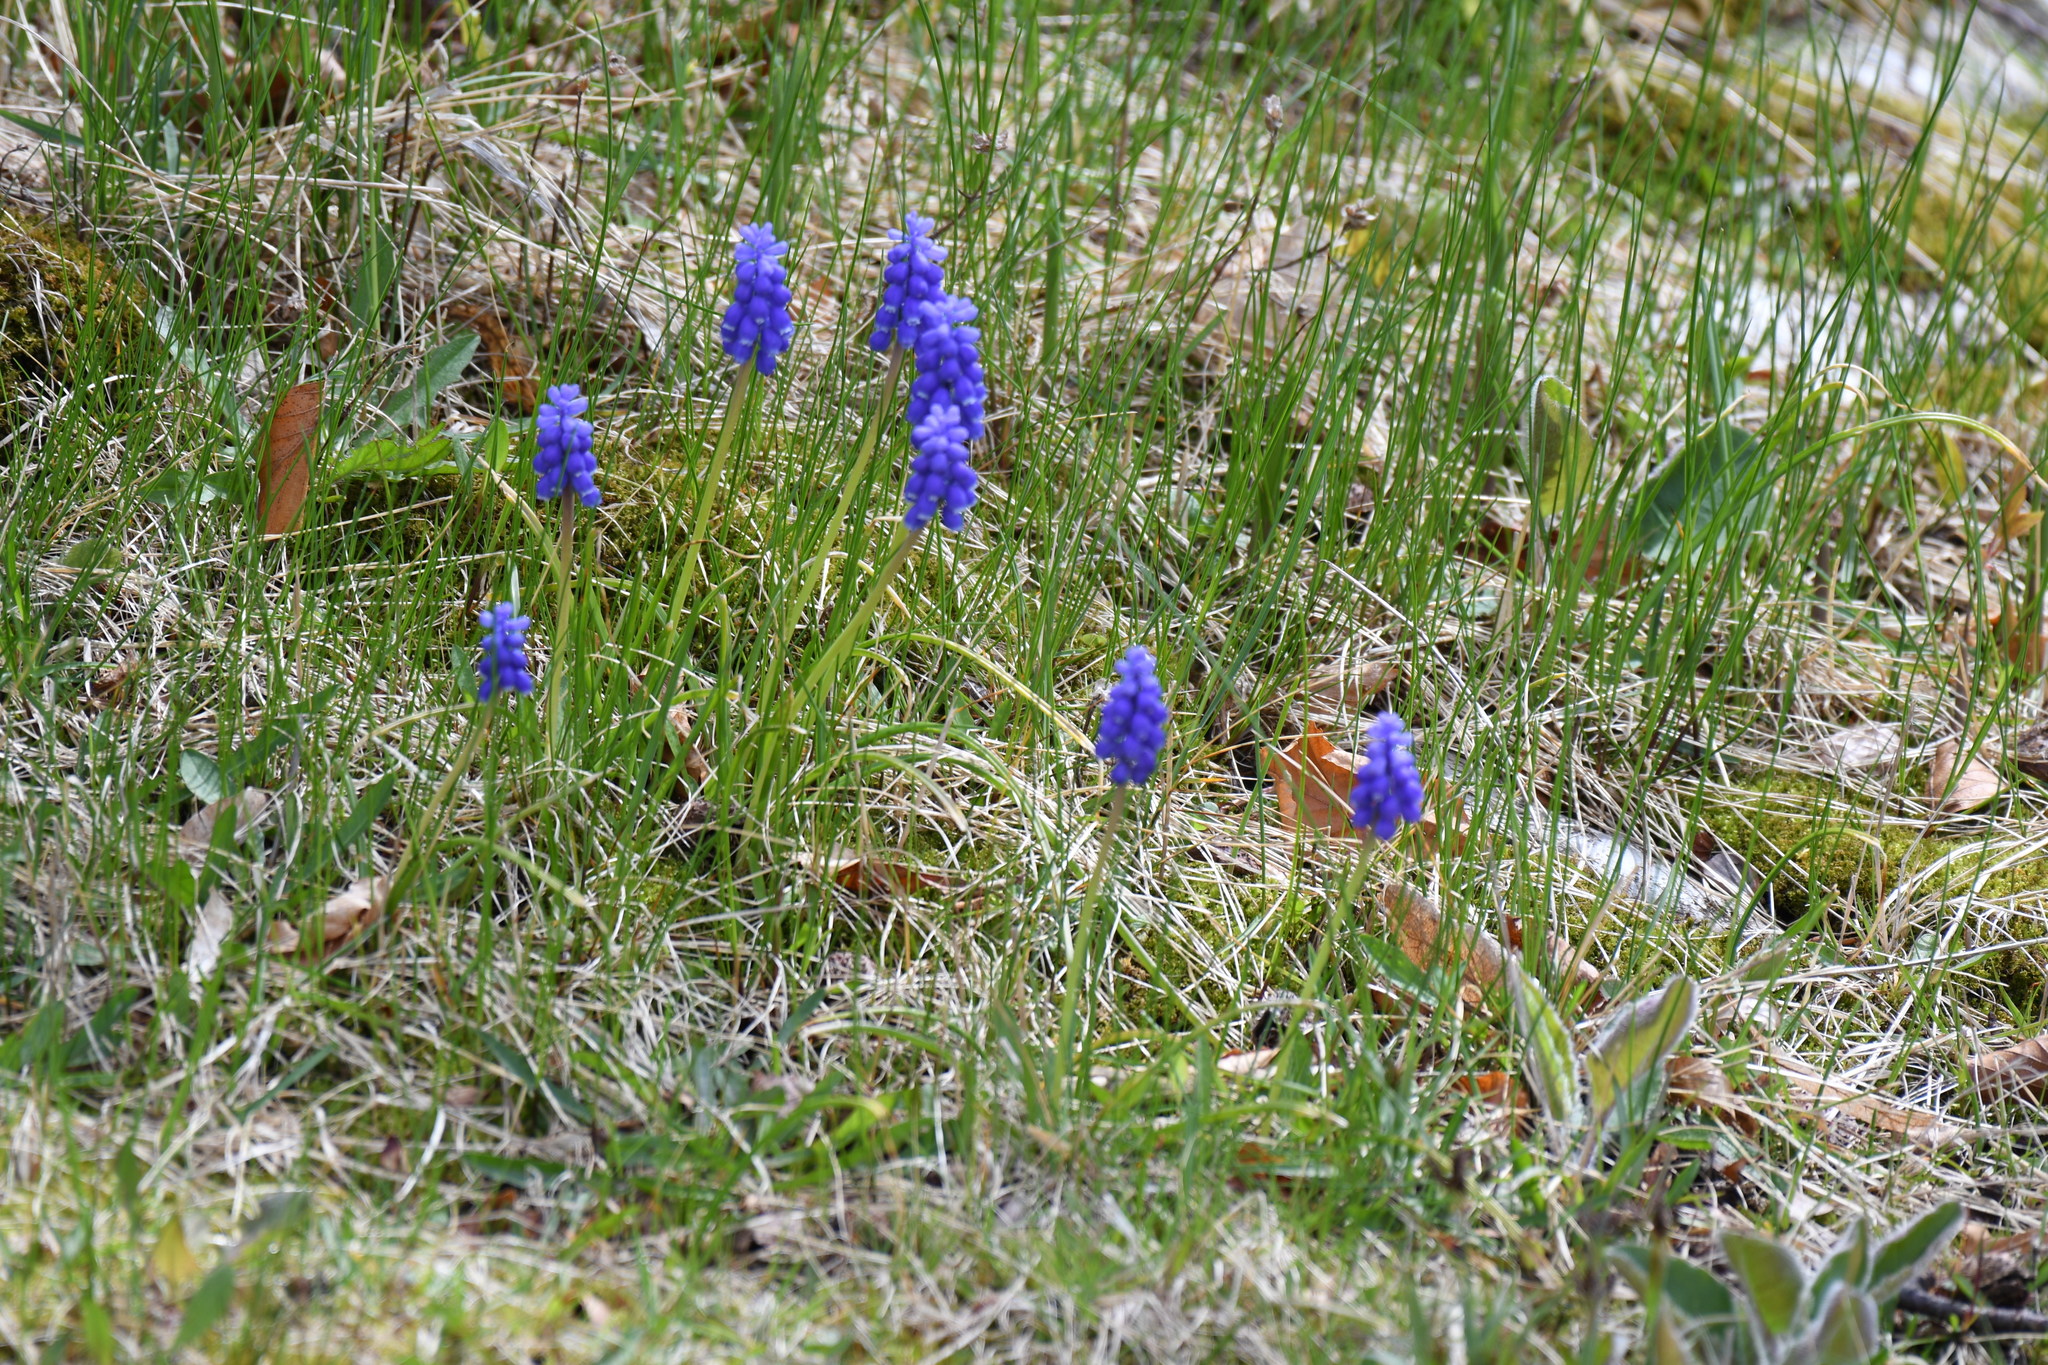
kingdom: Plantae
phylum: Tracheophyta
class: Liliopsida
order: Asparagales
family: Asparagaceae
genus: Muscari
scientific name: Muscari armeniacum
